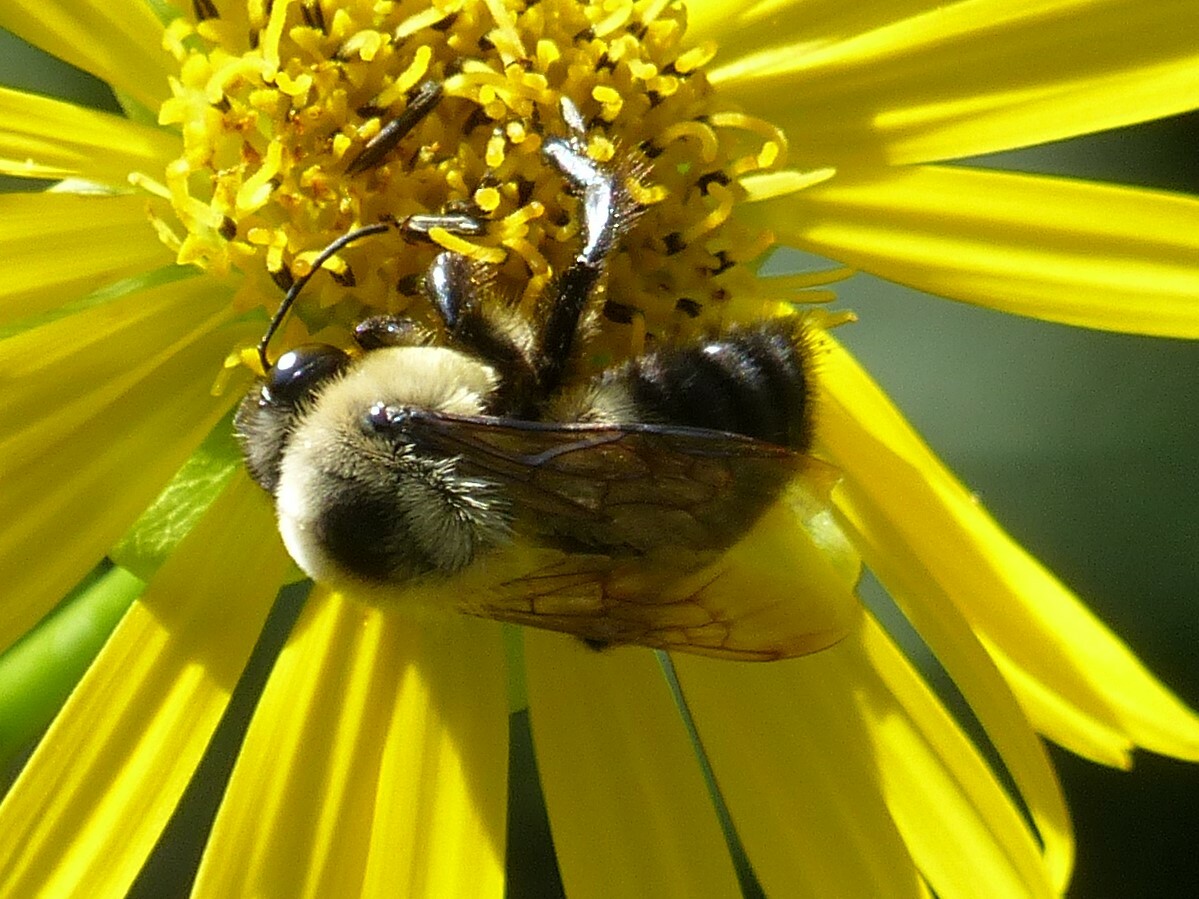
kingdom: Animalia
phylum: Arthropoda
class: Insecta
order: Hymenoptera
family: Apidae
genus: Bombus
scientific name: Bombus griseocollis
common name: Brown-belted bumble bee
